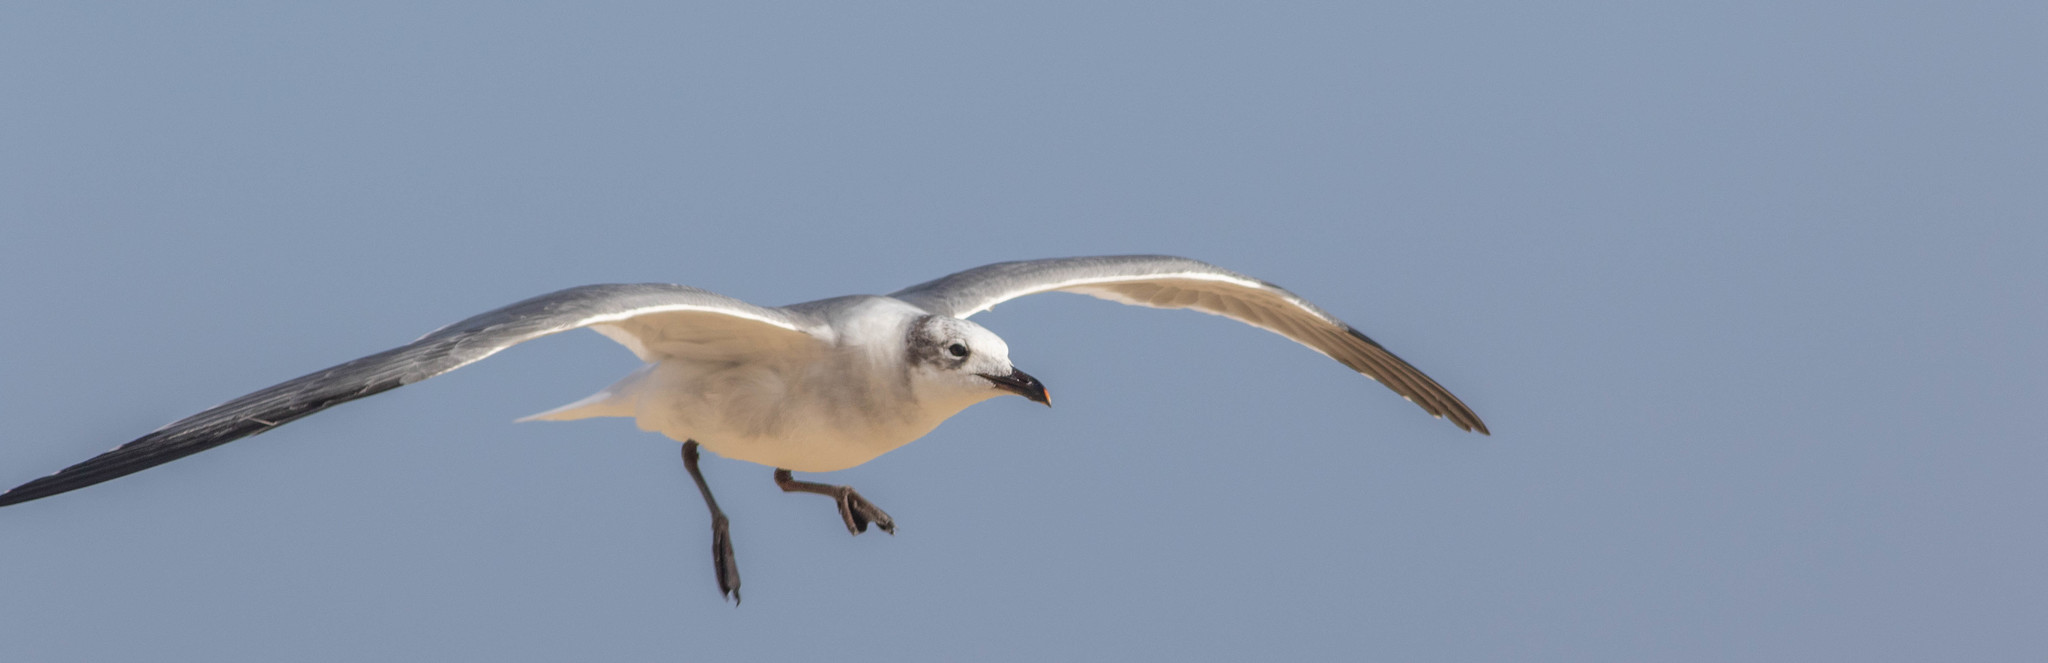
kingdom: Animalia
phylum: Chordata
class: Aves
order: Charadriiformes
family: Laridae
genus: Leucophaeus
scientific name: Leucophaeus atricilla
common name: Laughing gull
